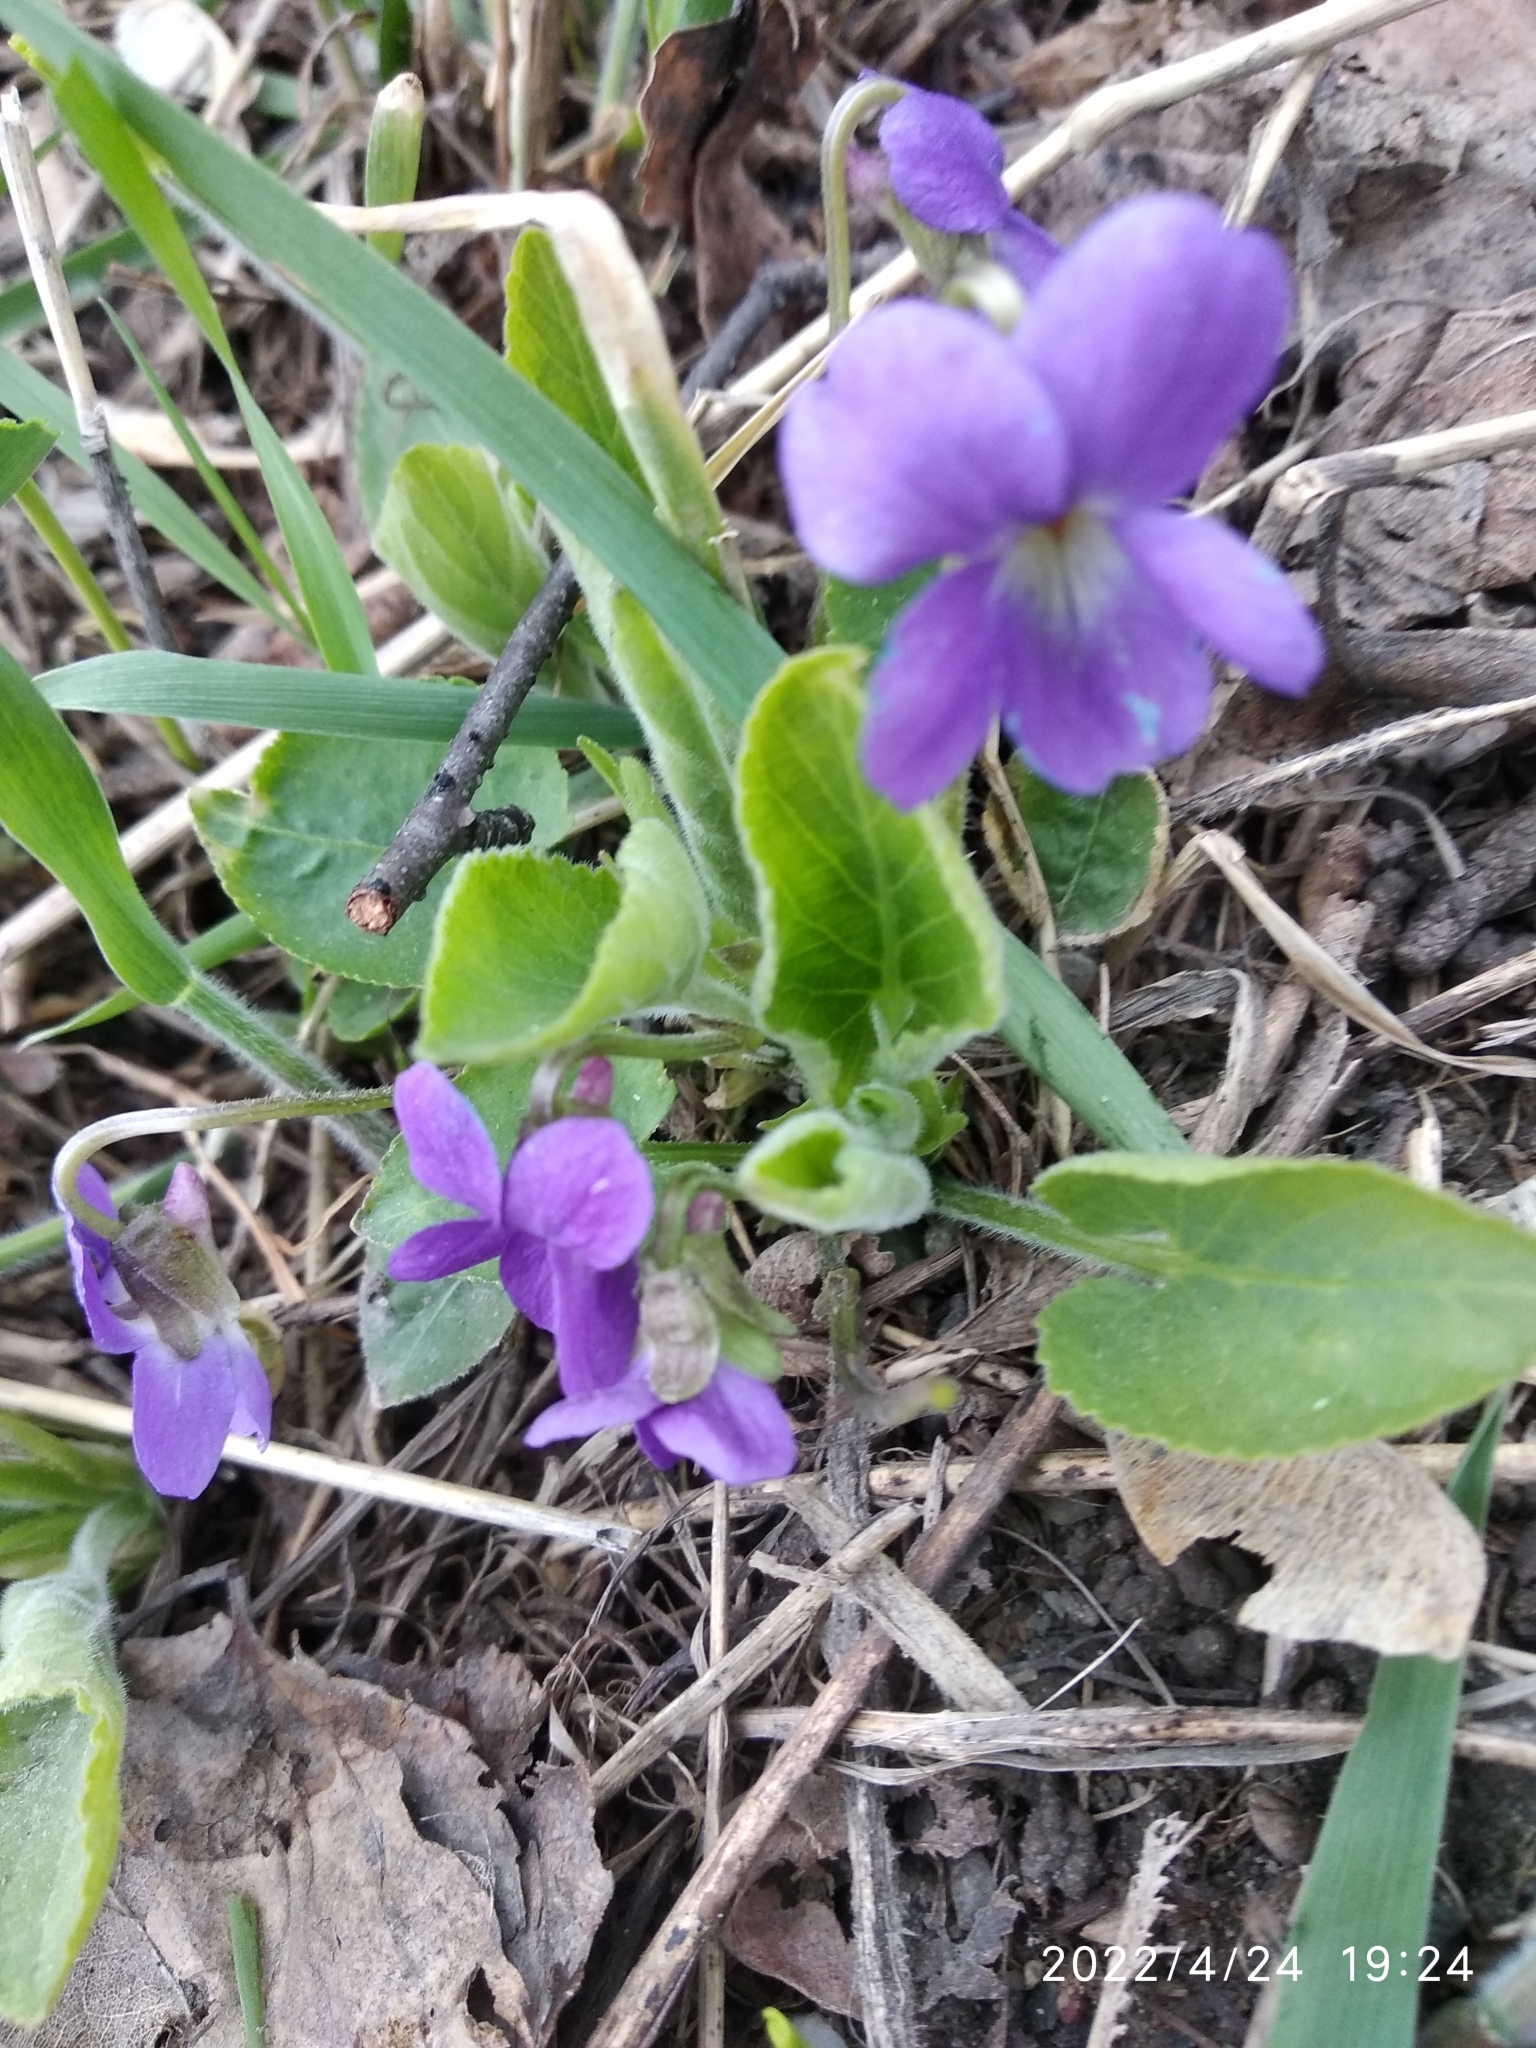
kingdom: Plantae
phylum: Tracheophyta
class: Magnoliopsida
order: Malpighiales
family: Violaceae
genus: Viola
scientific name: Viola hirta
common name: Hairy violet
